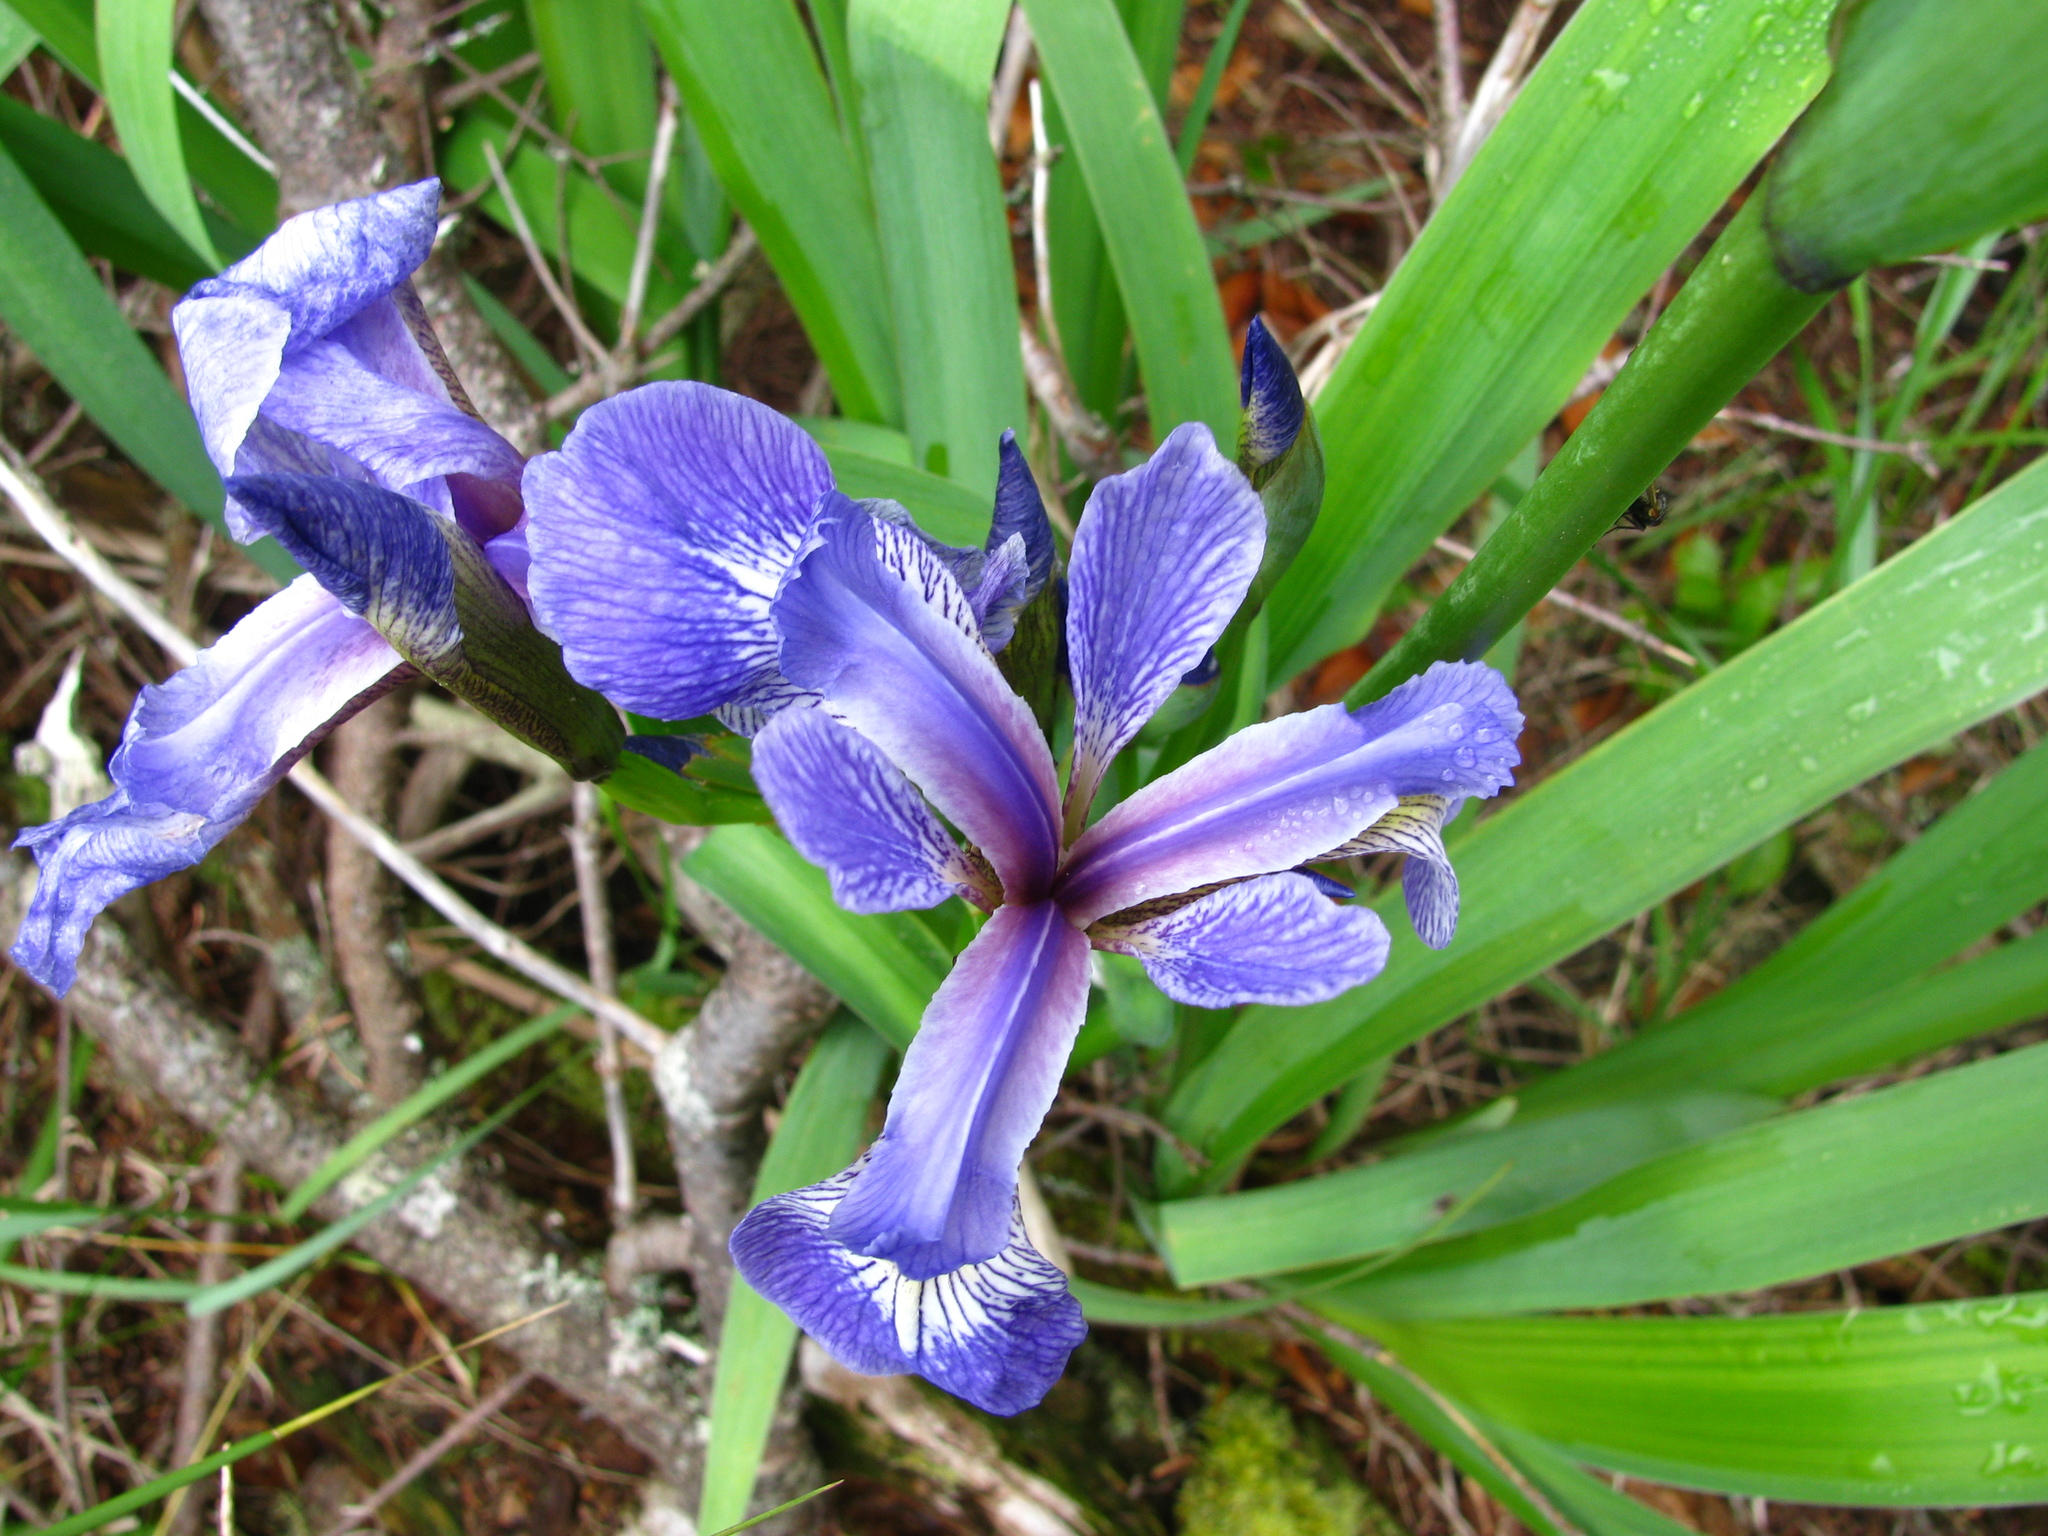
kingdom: Plantae
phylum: Tracheophyta
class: Liliopsida
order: Asparagales
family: Iridaceae
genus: Iris
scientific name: Iris versicolor
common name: Purple iris
